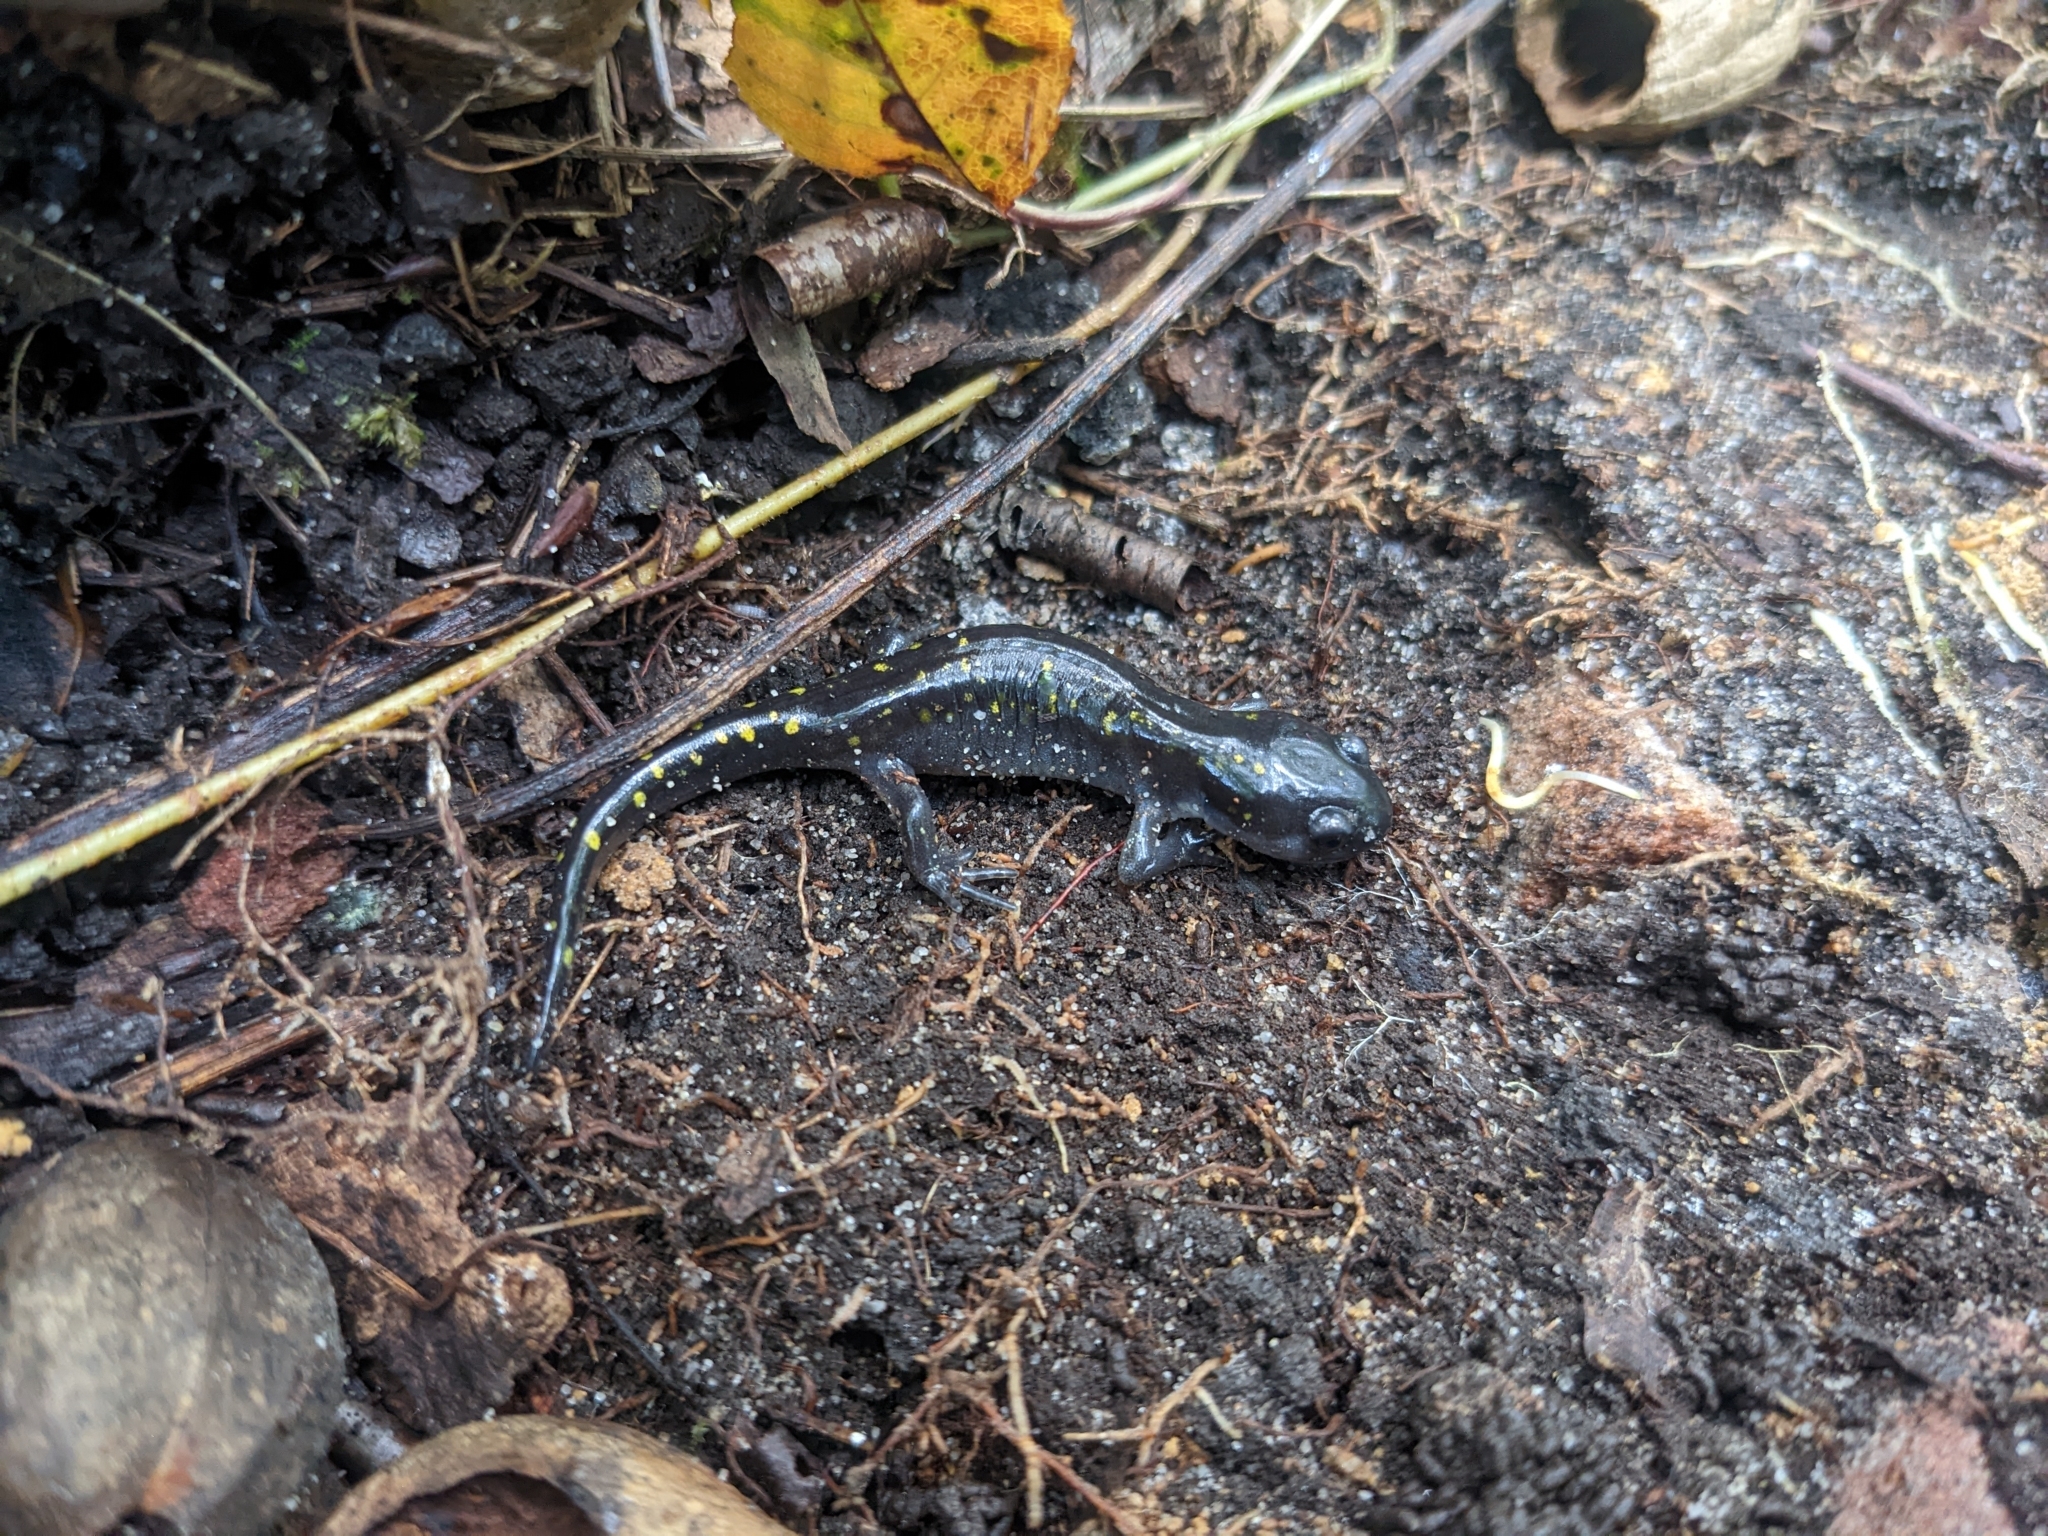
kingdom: Animalia
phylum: Chordata
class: Amphibia
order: Caudata
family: Ambystomatidae
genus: Ambystoma
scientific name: Ambystoma maculatum
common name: Spotted salamander
